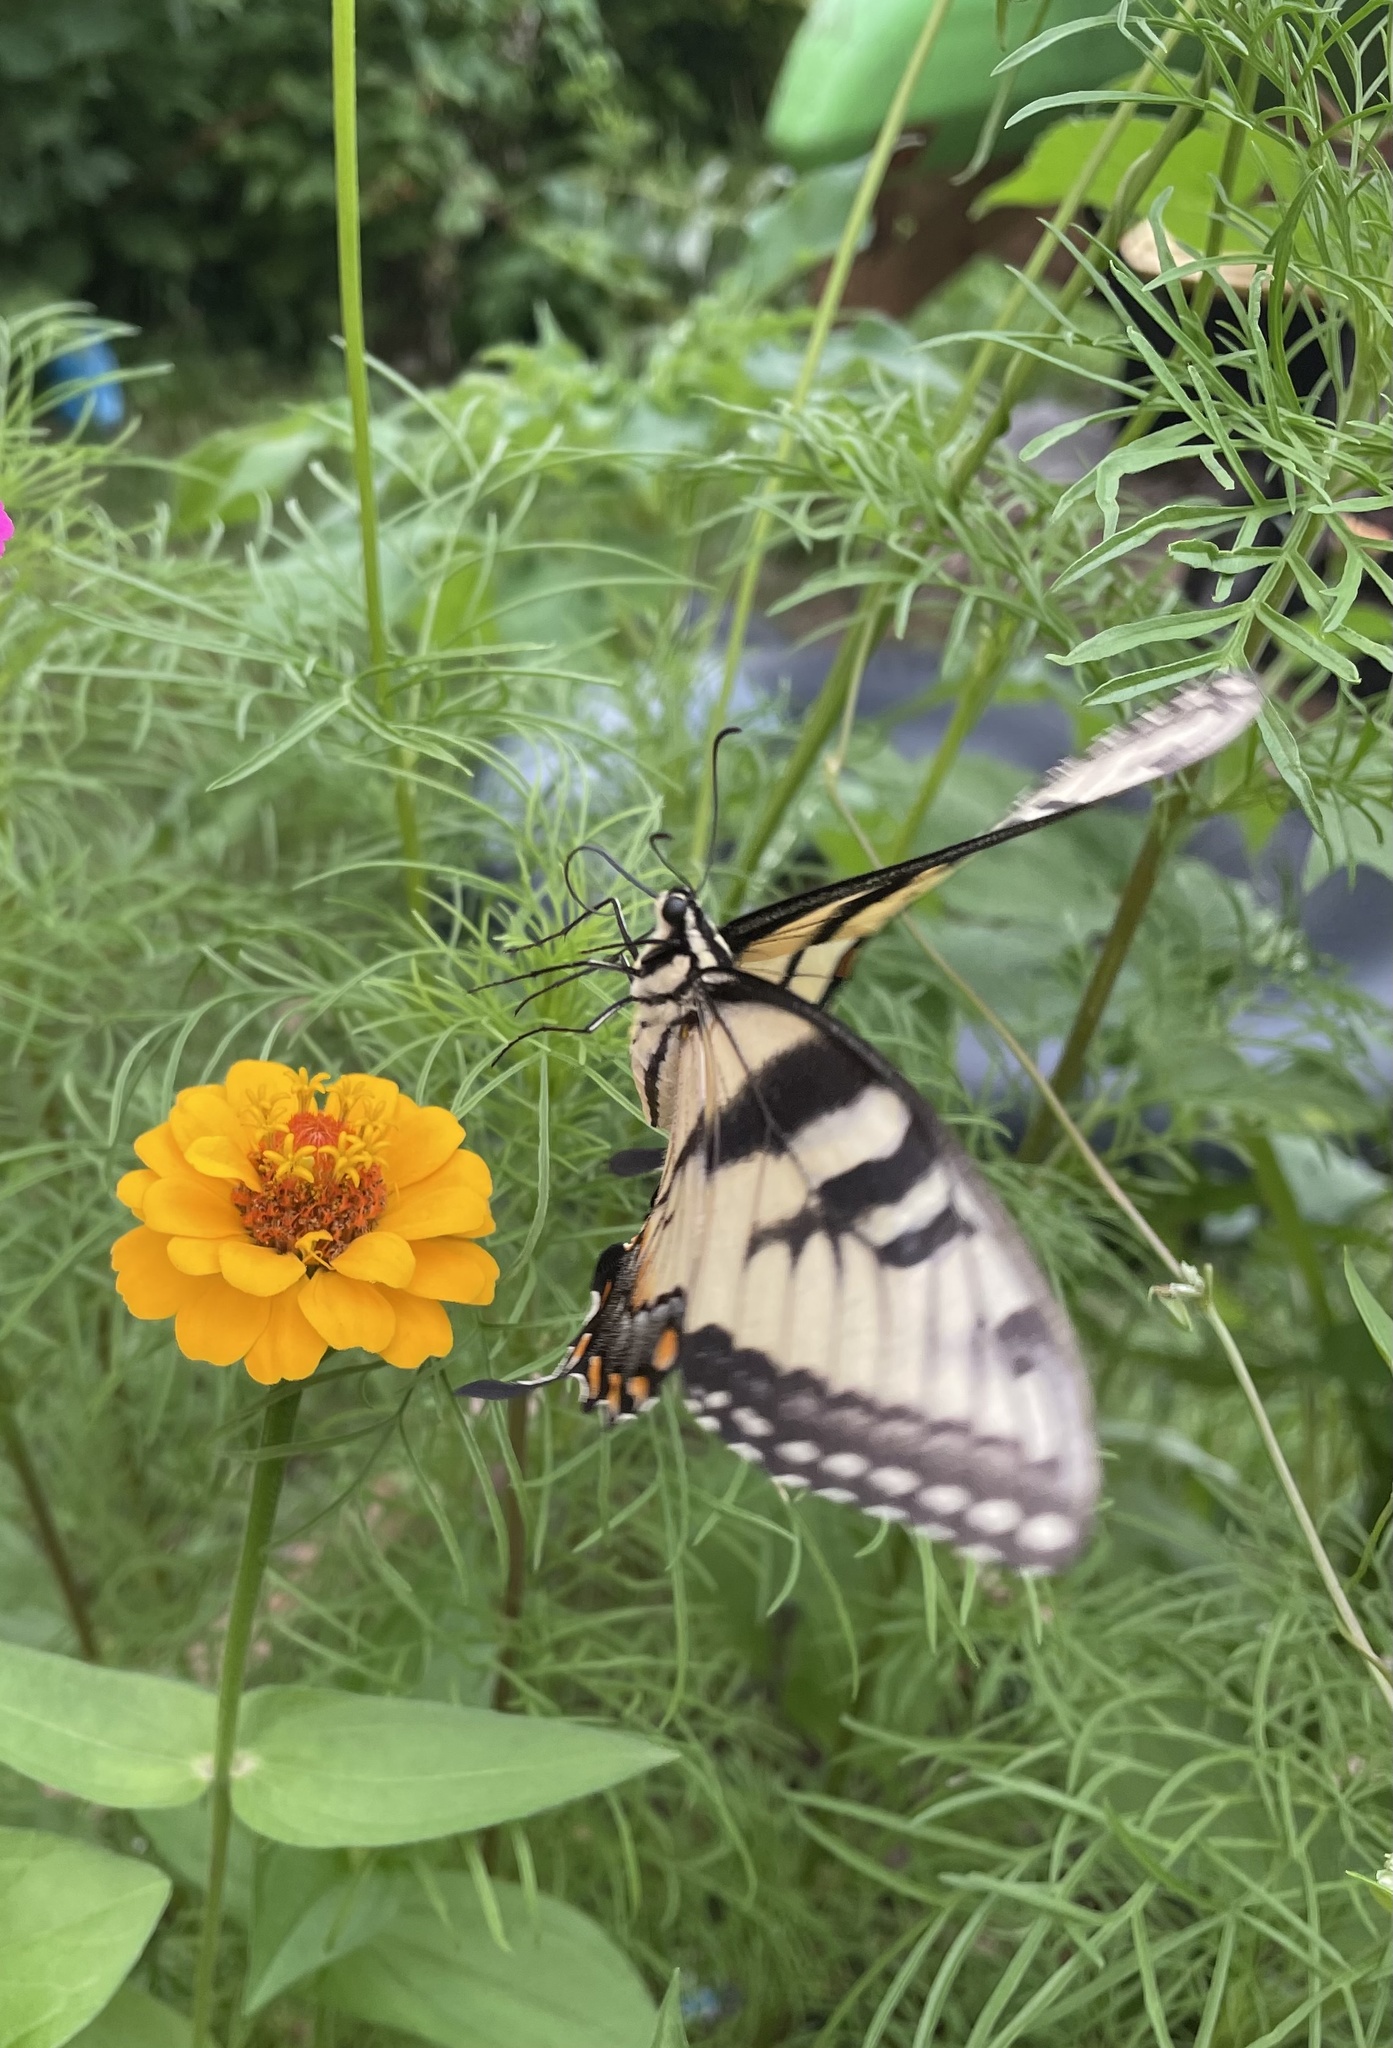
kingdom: Animalia
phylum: Arthropoda
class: Insecta
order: Lepidoptera
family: Papilionidae
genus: Papilio
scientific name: Papilio glaucus
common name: Tiger swallowtail
